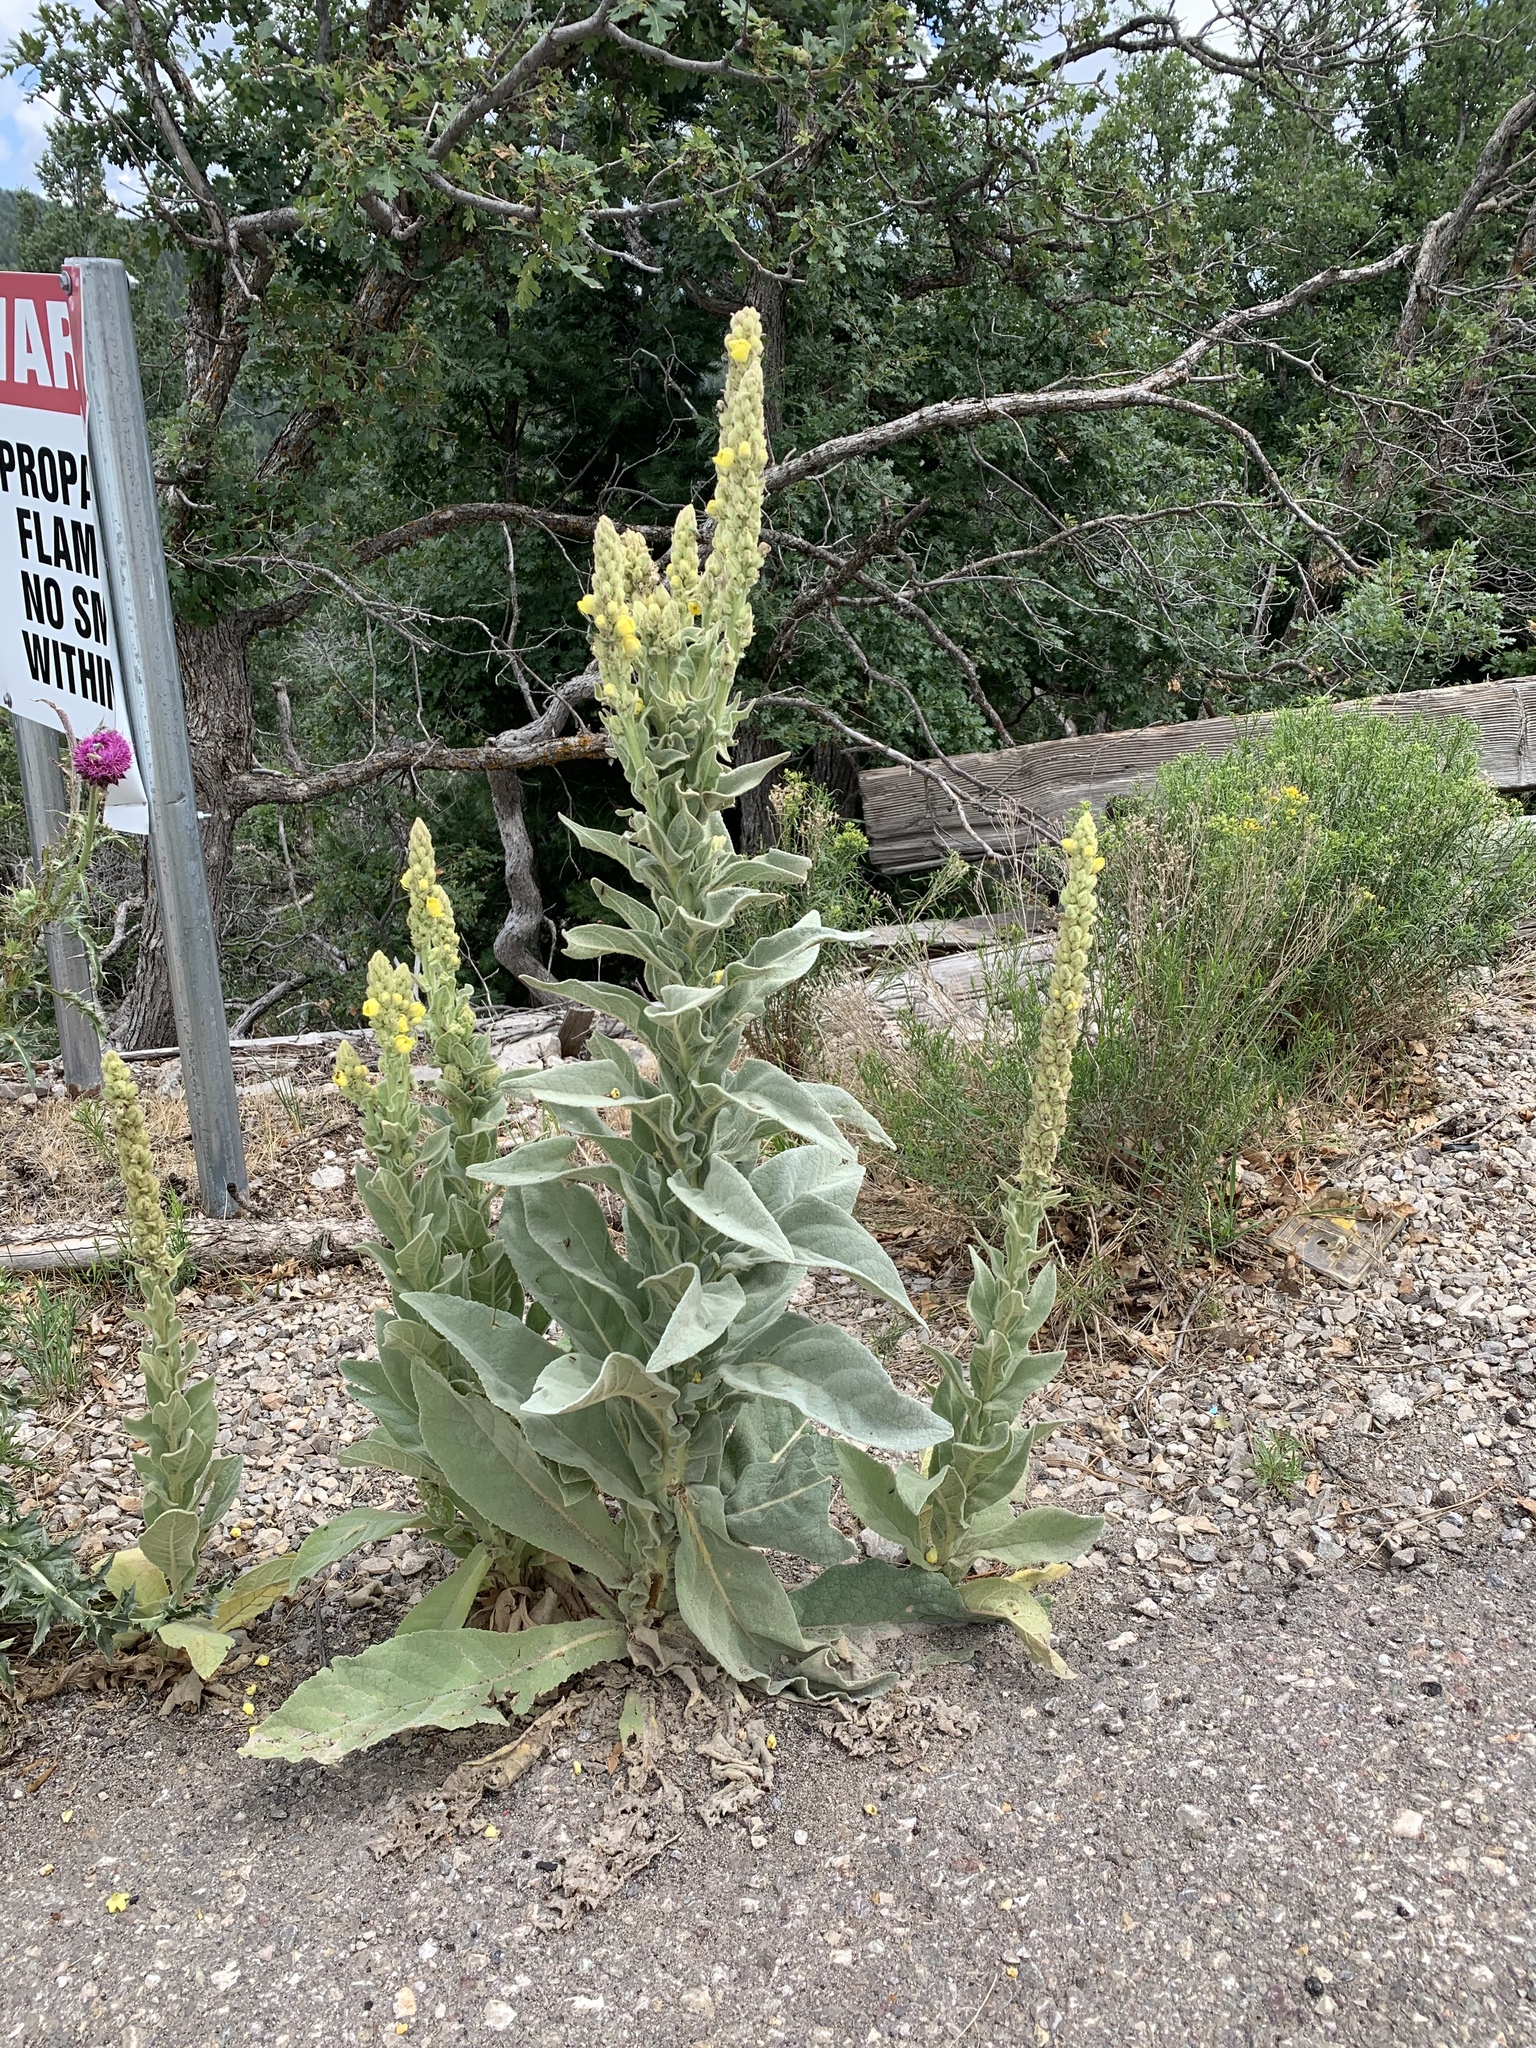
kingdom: Plantae
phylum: Tracheophyta
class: Magnoliopsida
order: Lamiales
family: Scrophulariaceae
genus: Verbascum
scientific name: Verbascum thapsus
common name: Common mullein
